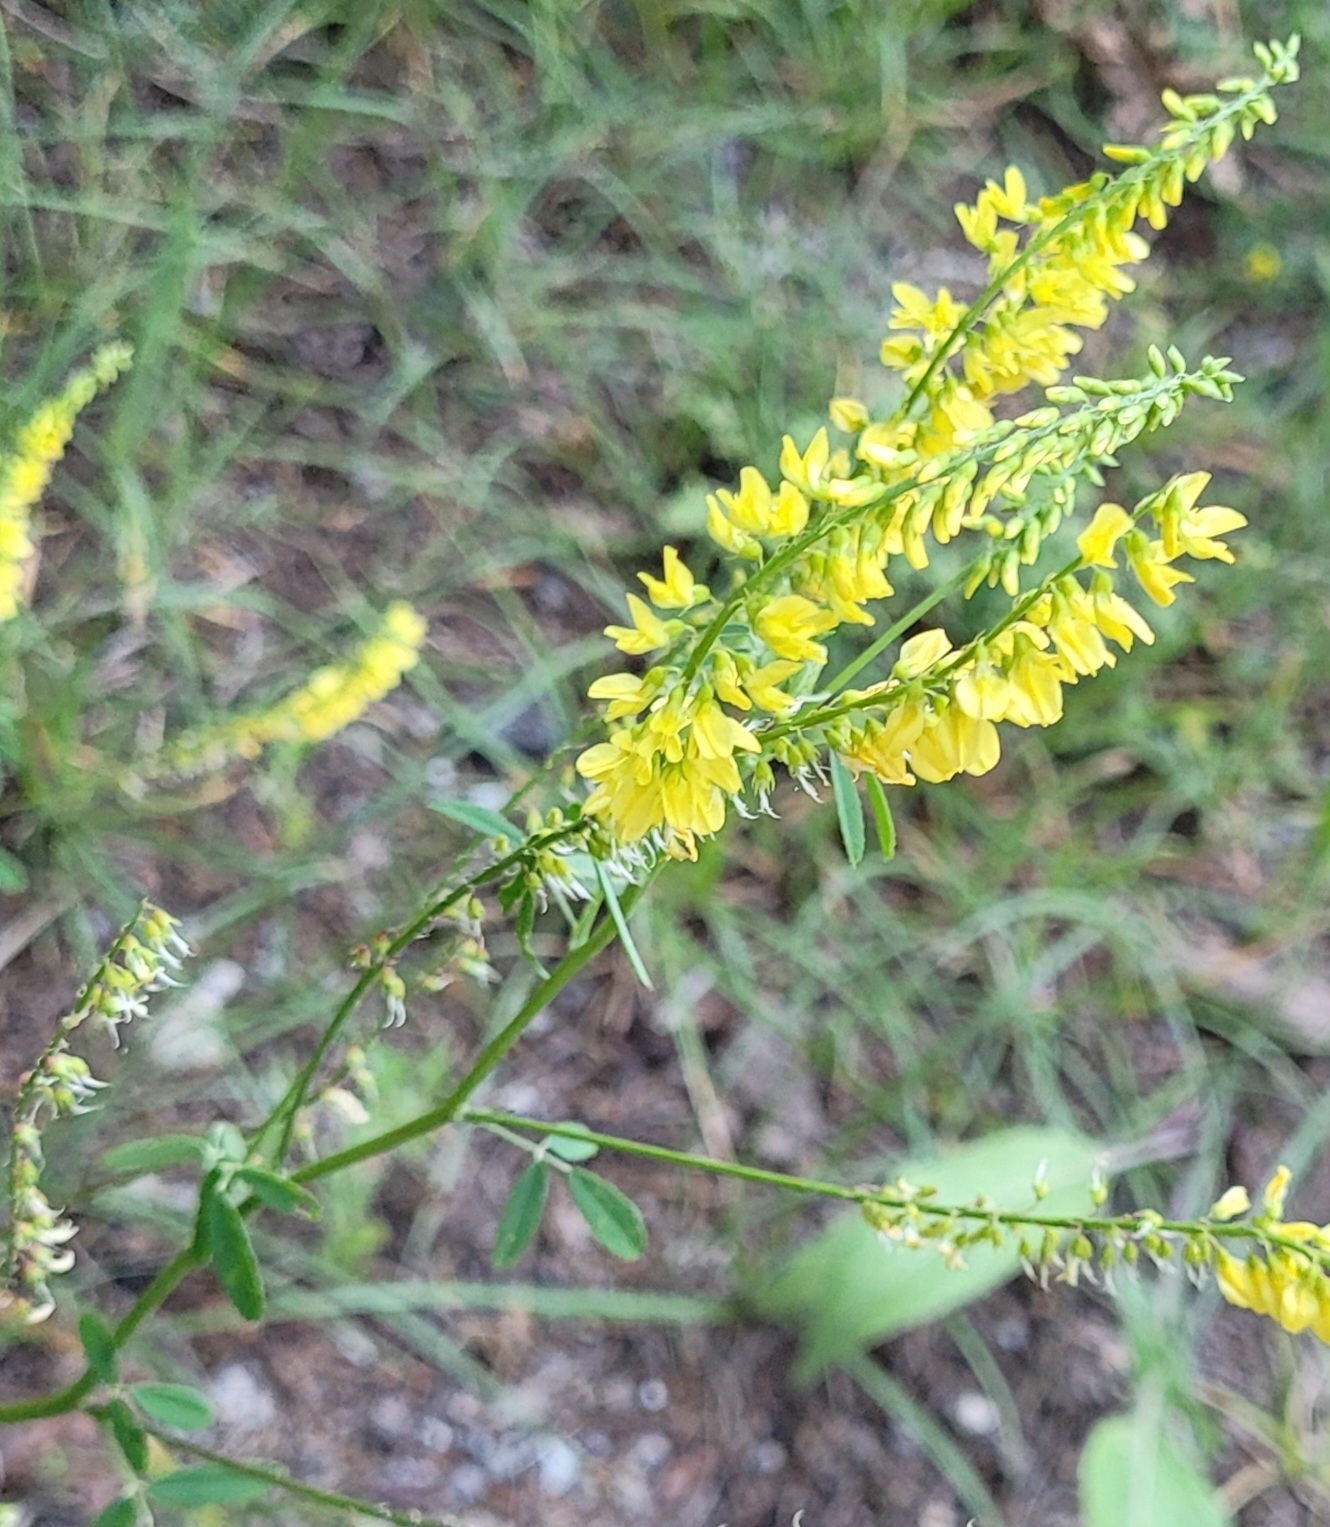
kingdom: Plantae
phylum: Tracheophyta
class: Magnoliopsida
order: Fabales
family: Fabaceae
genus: Melilotus
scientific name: Melilotus officinalis
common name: Sweetclover
